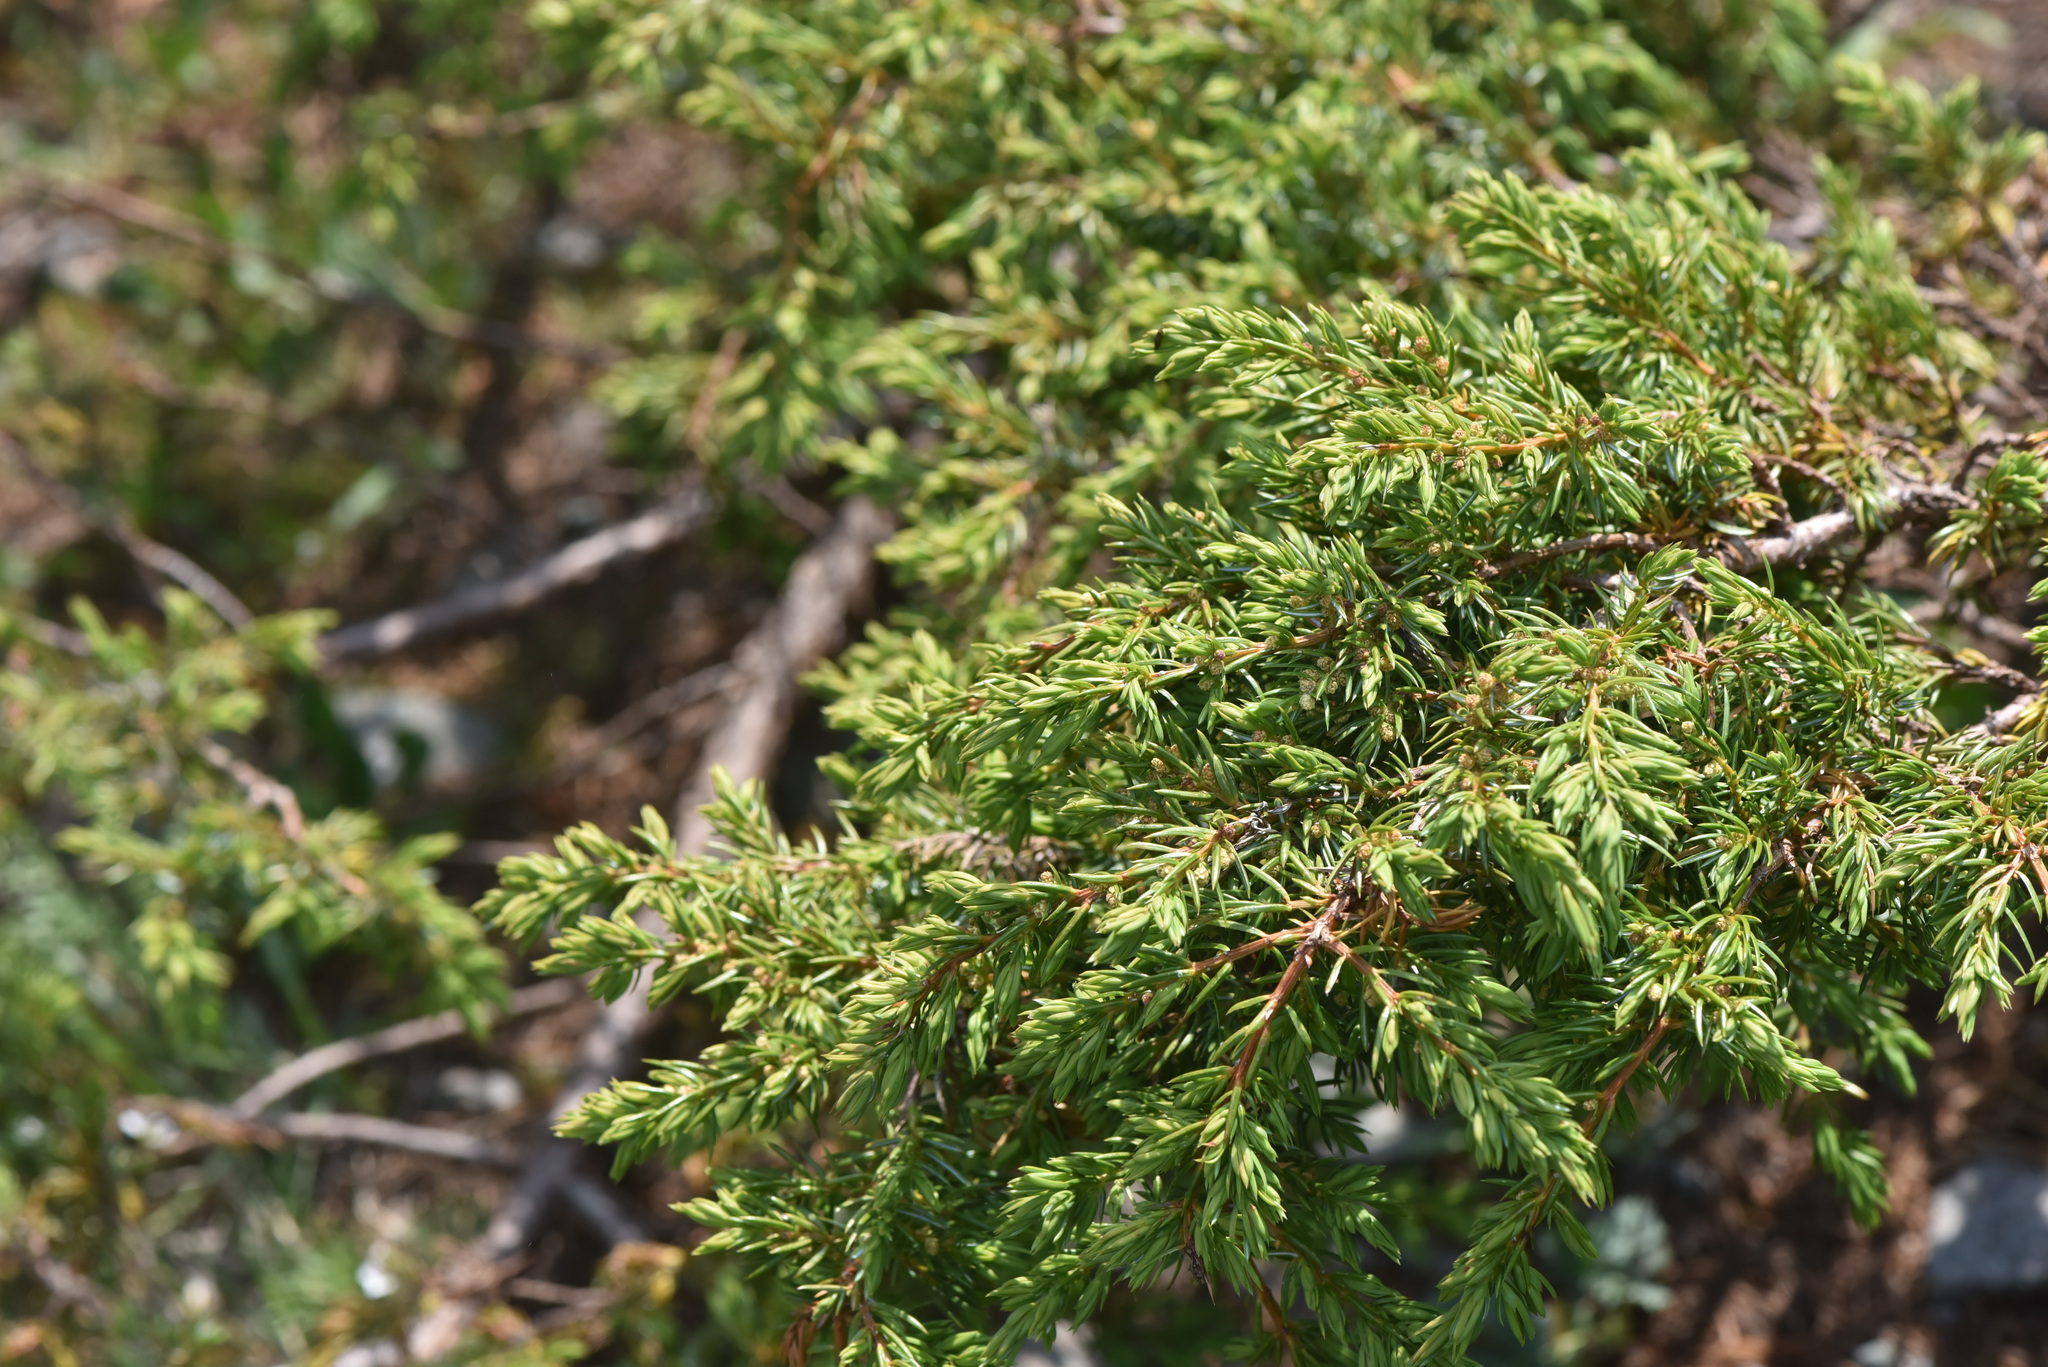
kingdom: Plantae
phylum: Tracheophyta
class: Pinopsida
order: Pinales
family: Cupressaceae
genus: Juniperus
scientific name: Juniperus communis
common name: Common juniper
